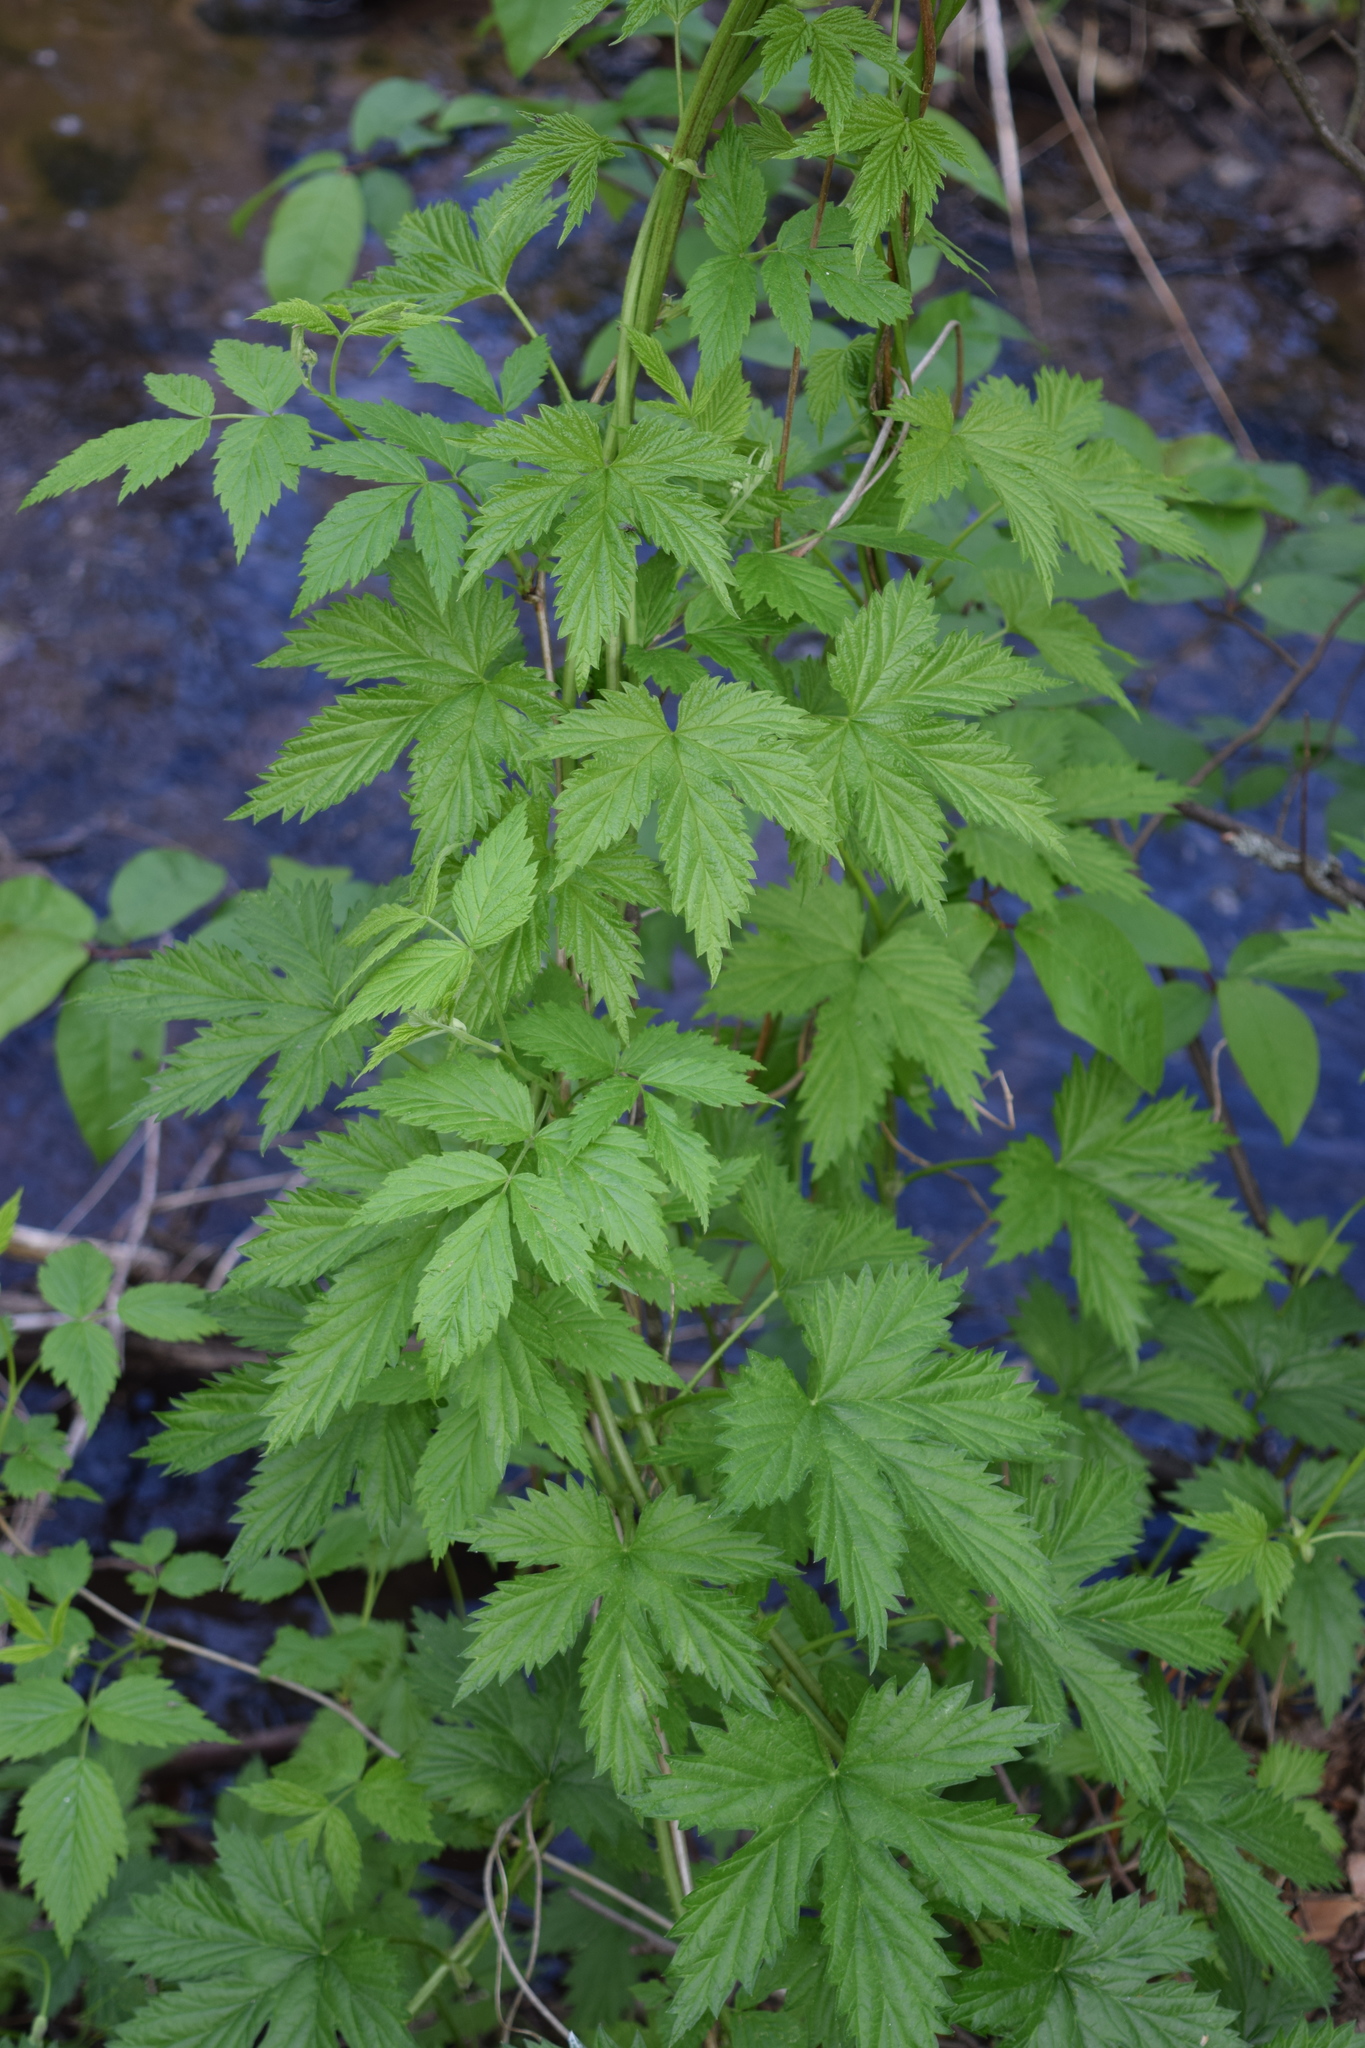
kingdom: Plantae
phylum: Tracheophyta
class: Magnoliopsida
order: Rosales
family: Cannabaceae
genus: Humulus
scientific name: Humulus lupulus
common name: Hop
